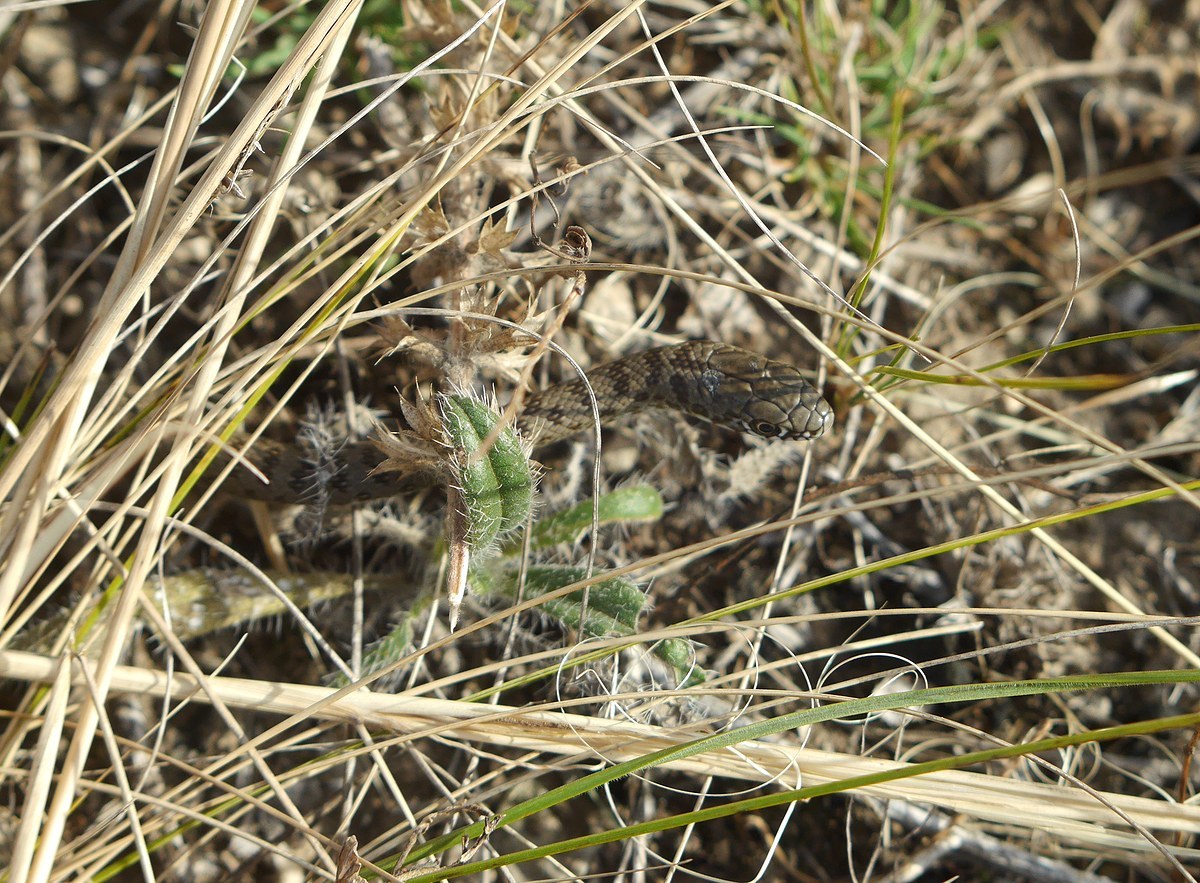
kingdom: Animalia
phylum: Chordata
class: Squamata
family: Colubridae
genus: Dolichophis
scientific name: Dolichophis caspius
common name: Large whip snake
